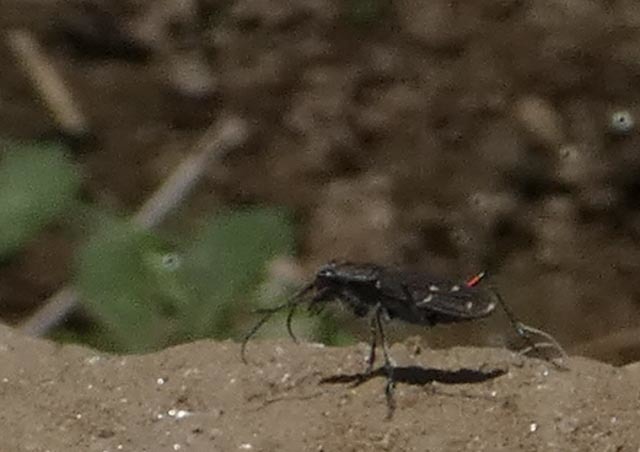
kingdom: Animalia
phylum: Arthropoda
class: Insecta
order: Coleoptera
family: Carabidae
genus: Cicindela
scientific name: Cicindela duodecimguttata
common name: Twelve-spotted tiger beetle
